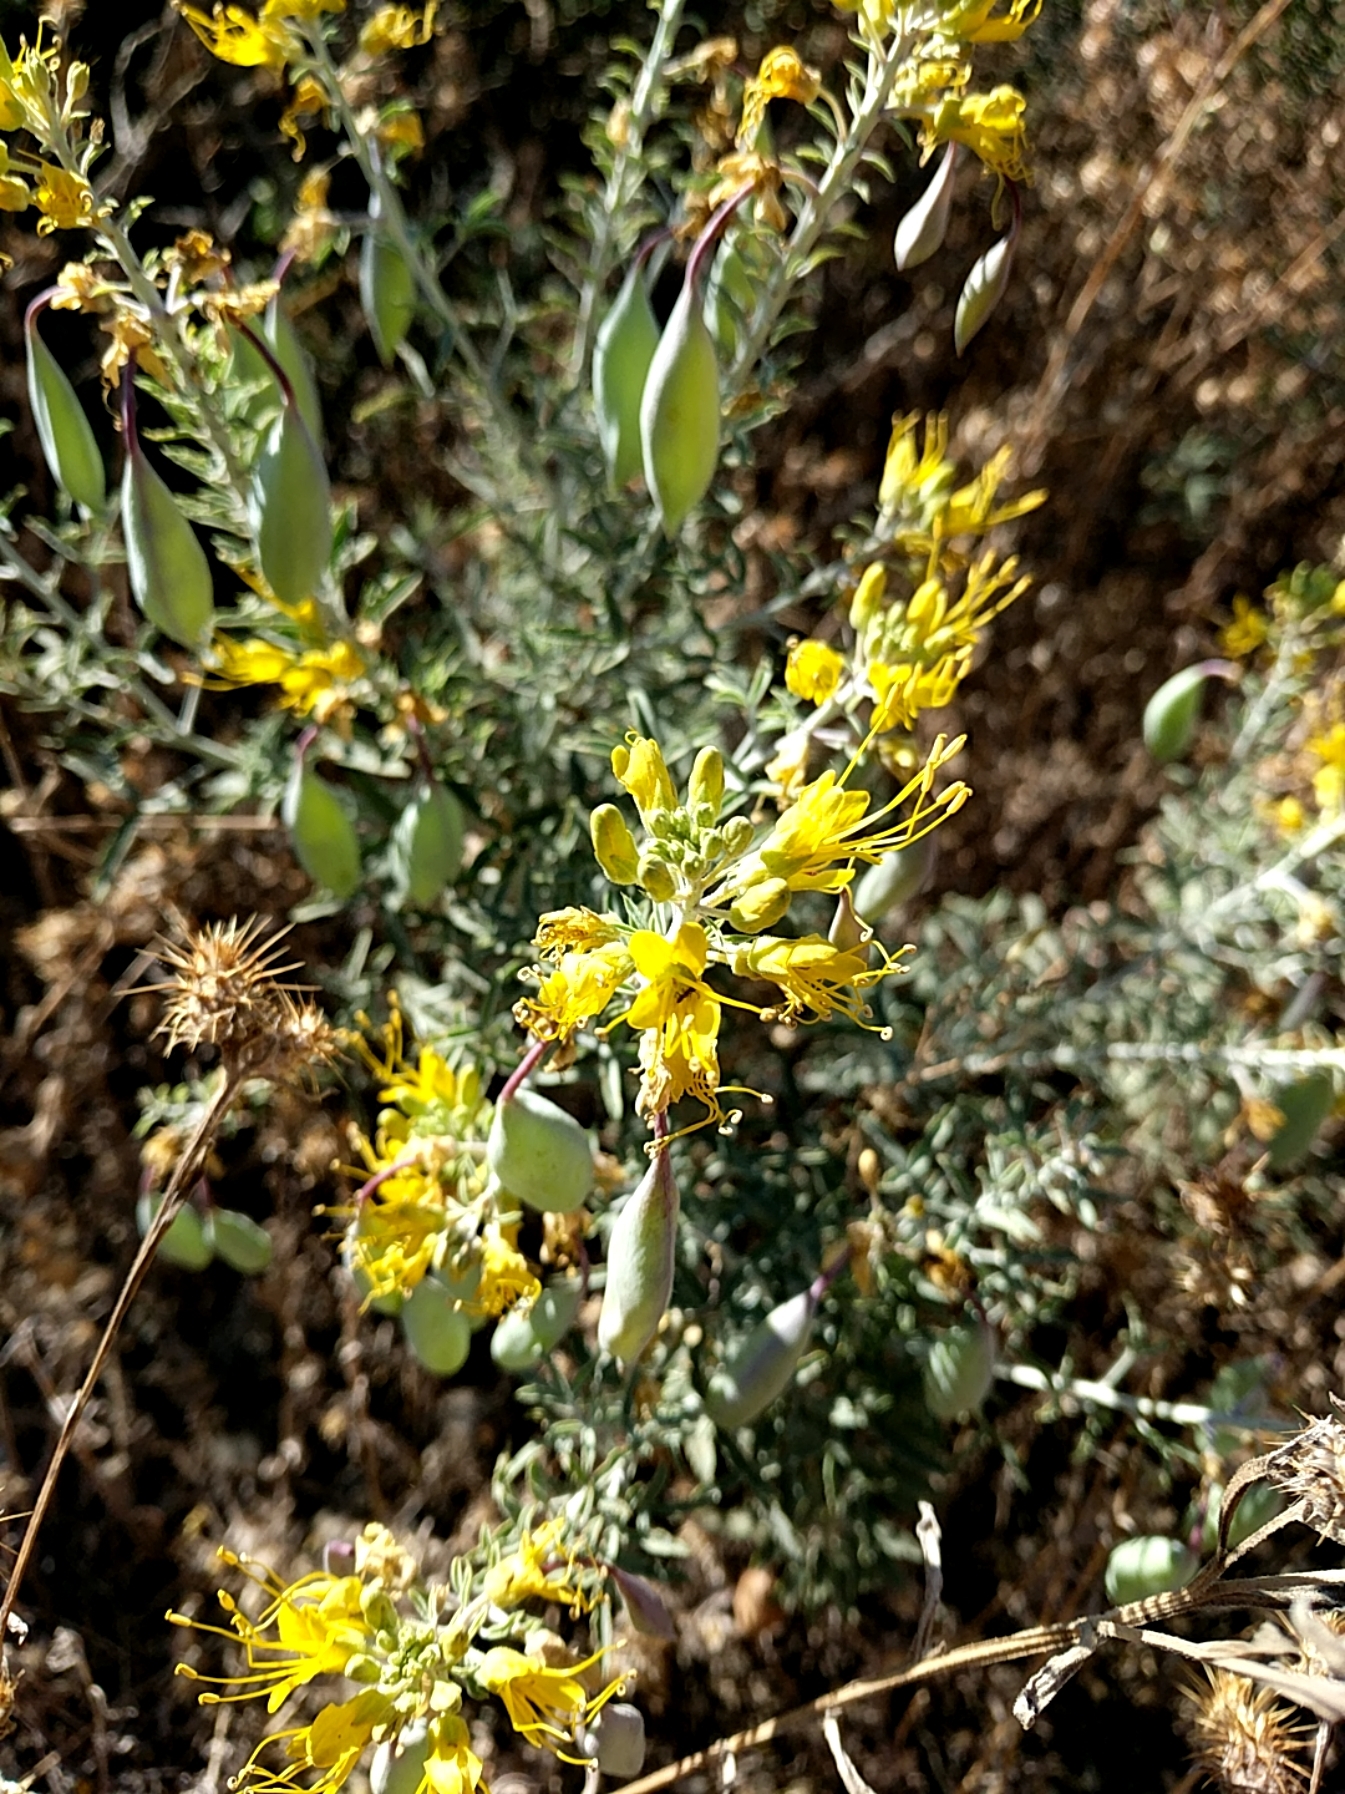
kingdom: Plantae
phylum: Tracheophyta
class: Magnoliopsida
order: Brassicales
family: Cleomaceae
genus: Cleomella
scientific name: Cleomella arborea
